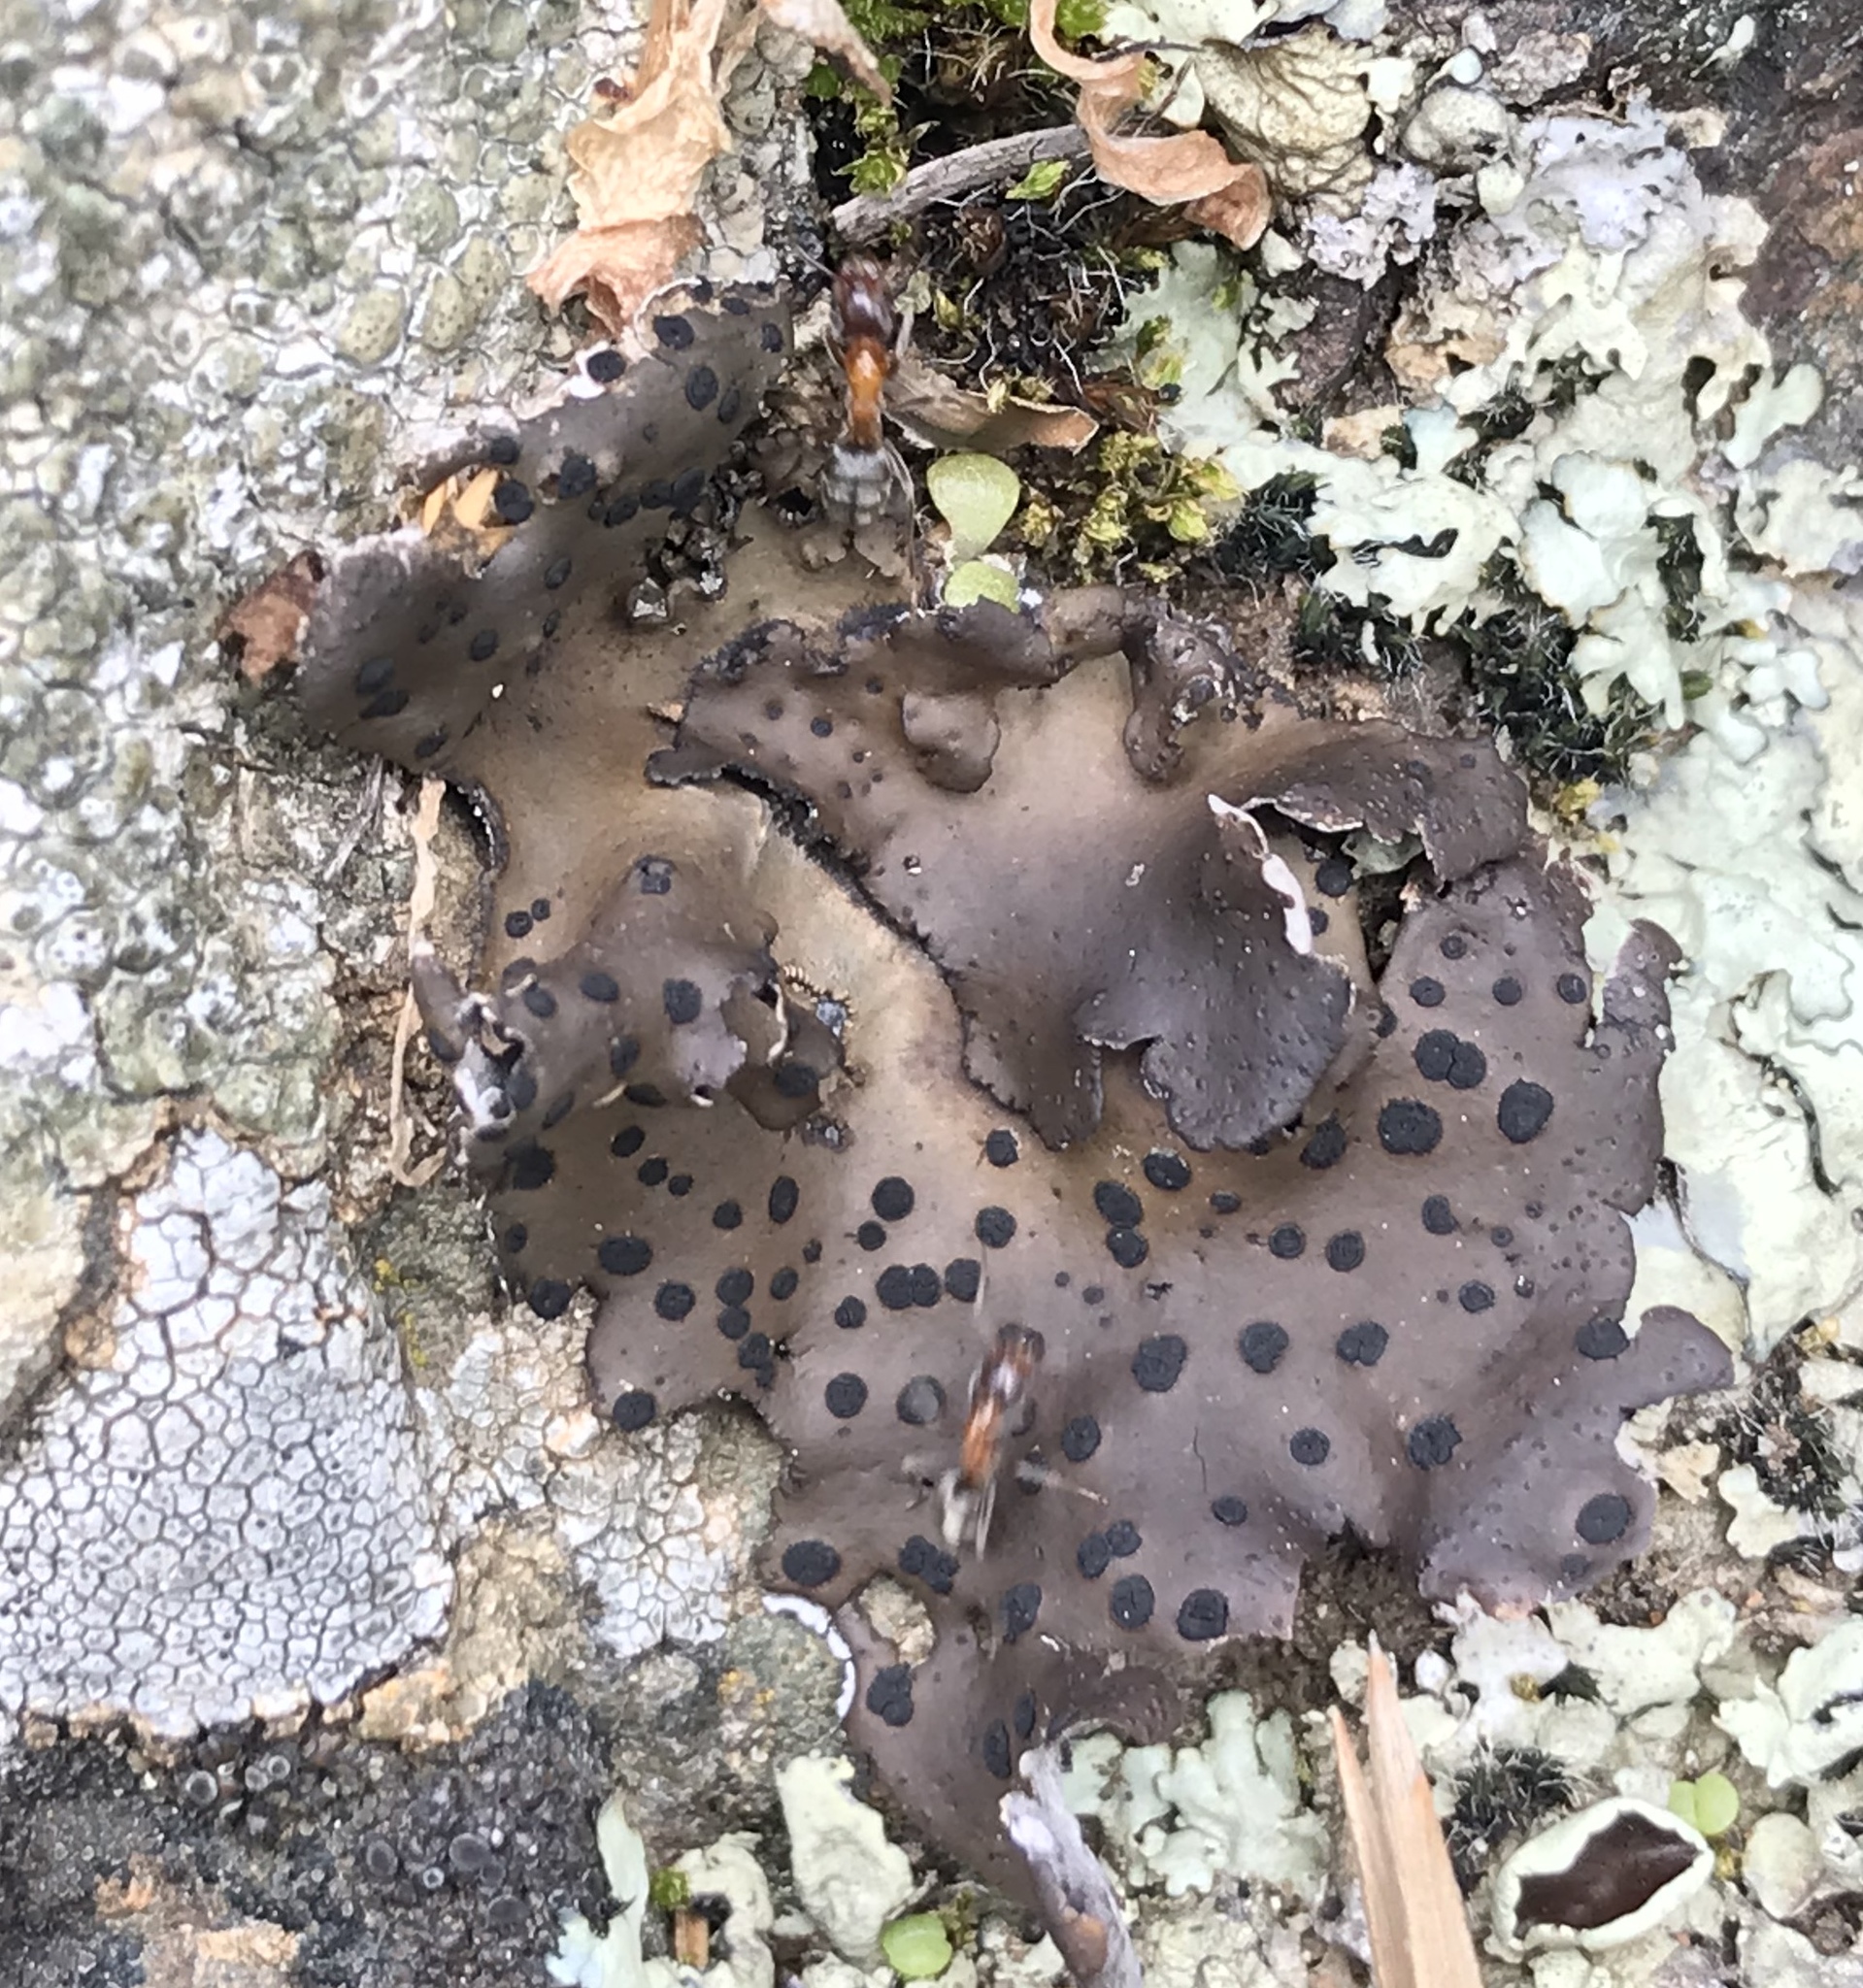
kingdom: Fungi
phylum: Ascomycota
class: Lecanoromycetes
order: Umbilicariales
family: Umbilicariaceae
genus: Umbilicaria
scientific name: Umbilicaria phaea
